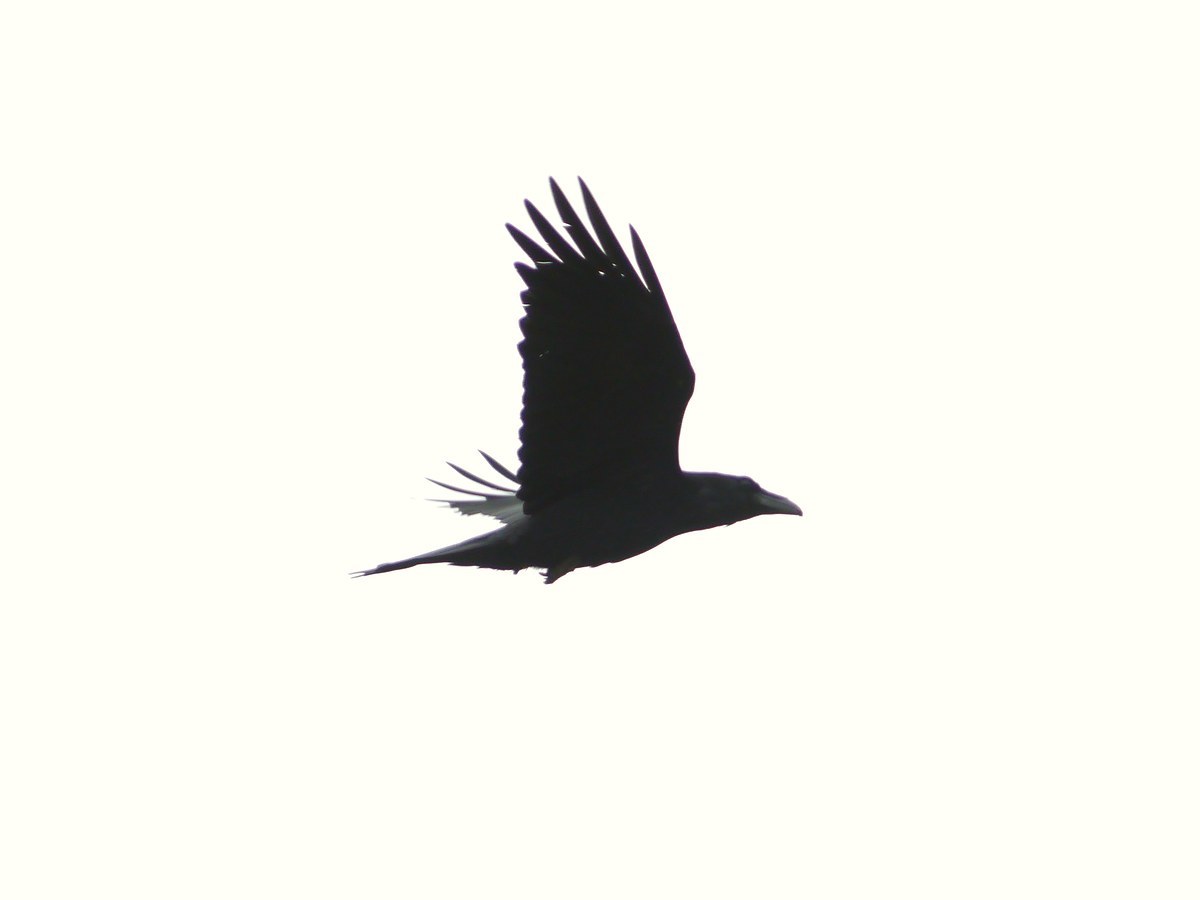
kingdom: Animalia
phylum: Chordata
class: Aves
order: Passeriformes
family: Corvidae
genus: Corvus
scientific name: Corvus corax
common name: Common raven
